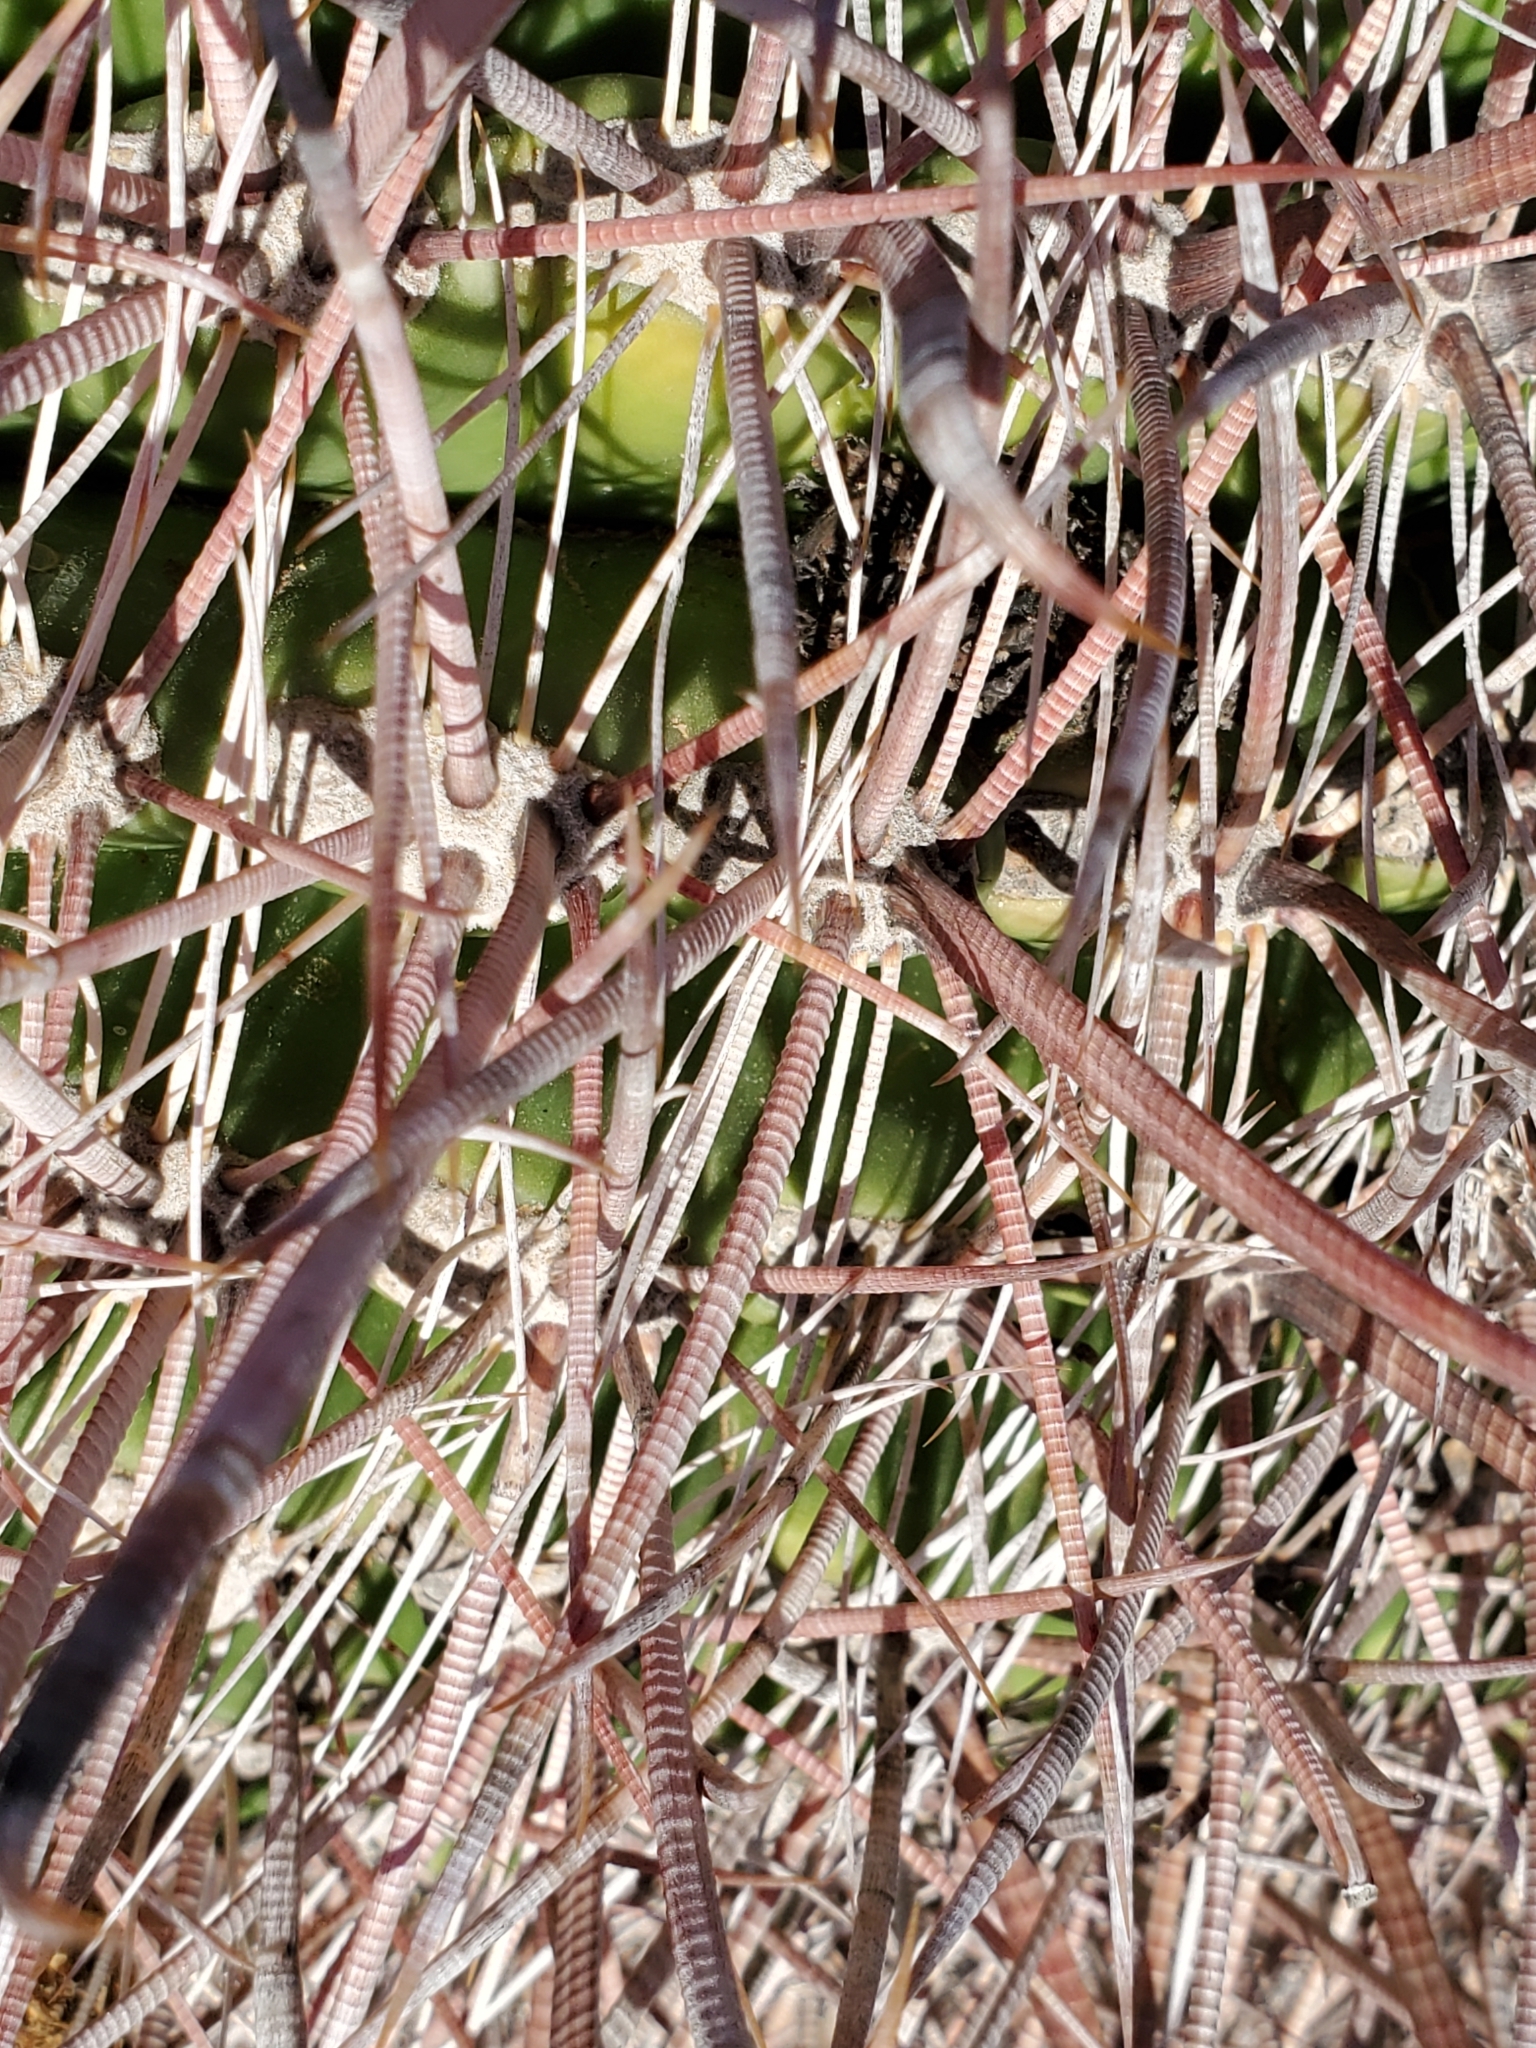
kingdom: Plantae
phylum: Tracheophyta
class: Magnoliopsida
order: Caryophyllales
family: Cactaceae
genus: Ferocactus
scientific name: Ferocactus cylindraceus
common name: California barrel cactus
